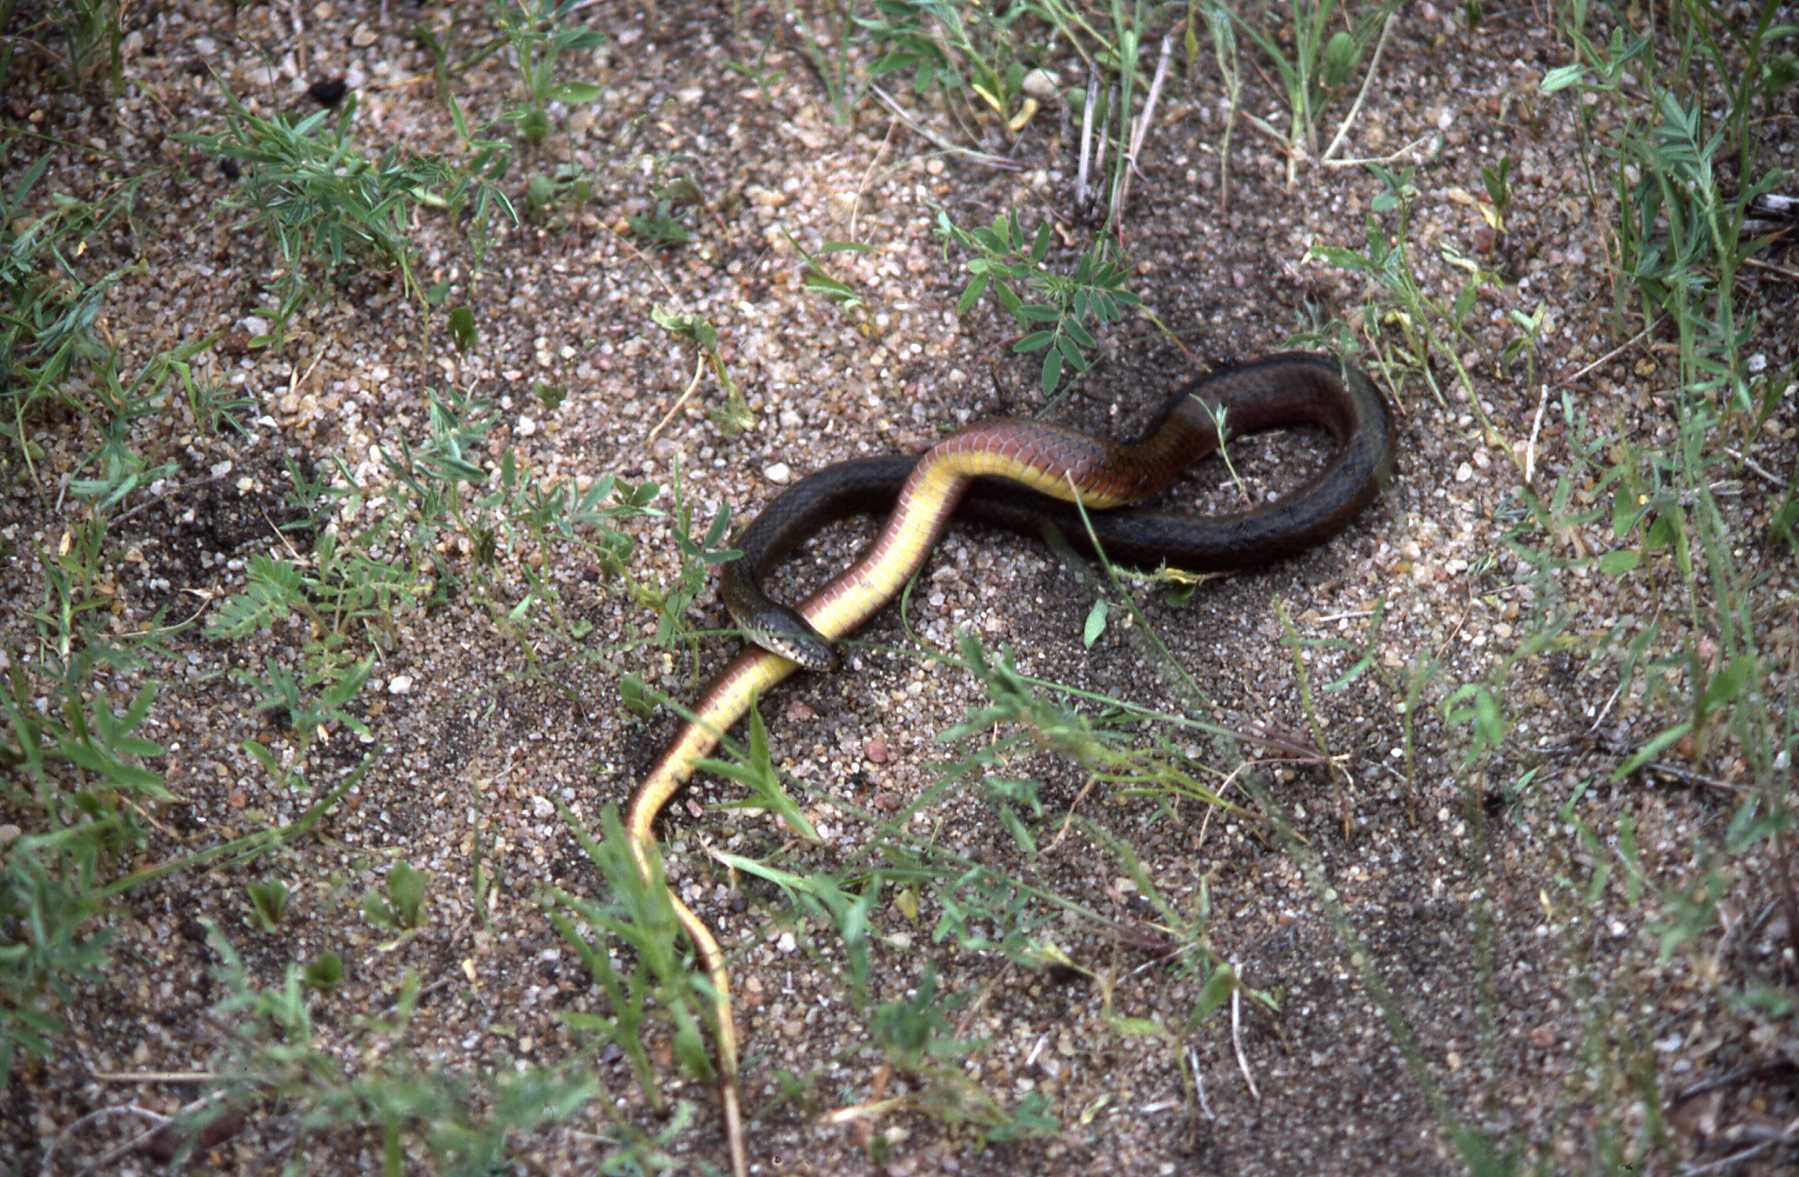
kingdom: Animalia
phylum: Chordata
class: Squamata
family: Colubridae
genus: Natriciteres
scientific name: Natriciteres olivacea
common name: Olive marsh snake
